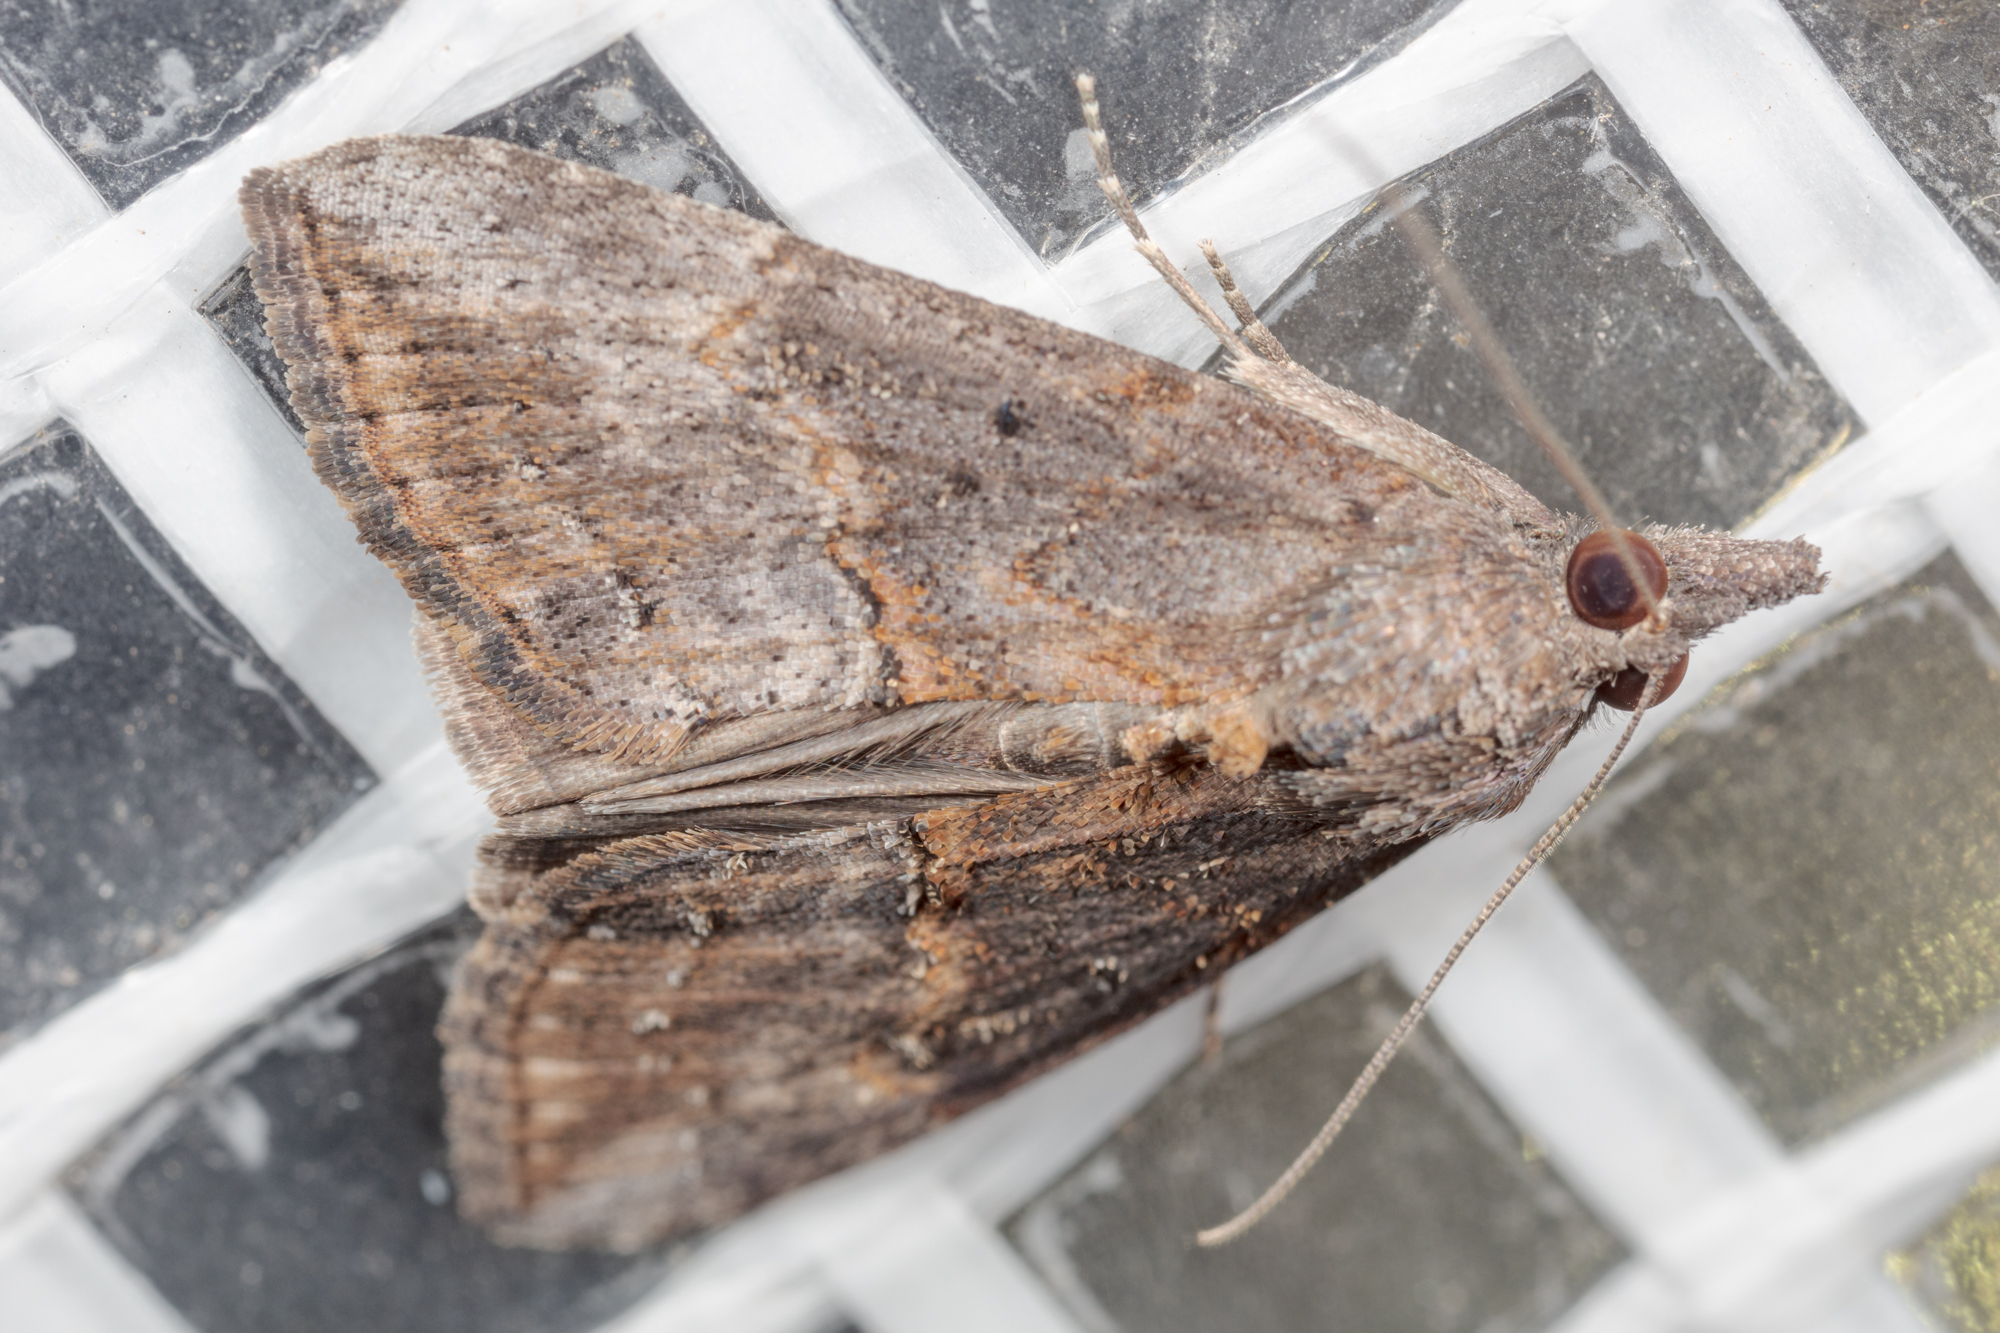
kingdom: Animalia
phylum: Arthropoda
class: Insecta
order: Lepidoptera
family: Erebidae
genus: Hypena
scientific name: Hypena scabra
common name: Green cloverworm
